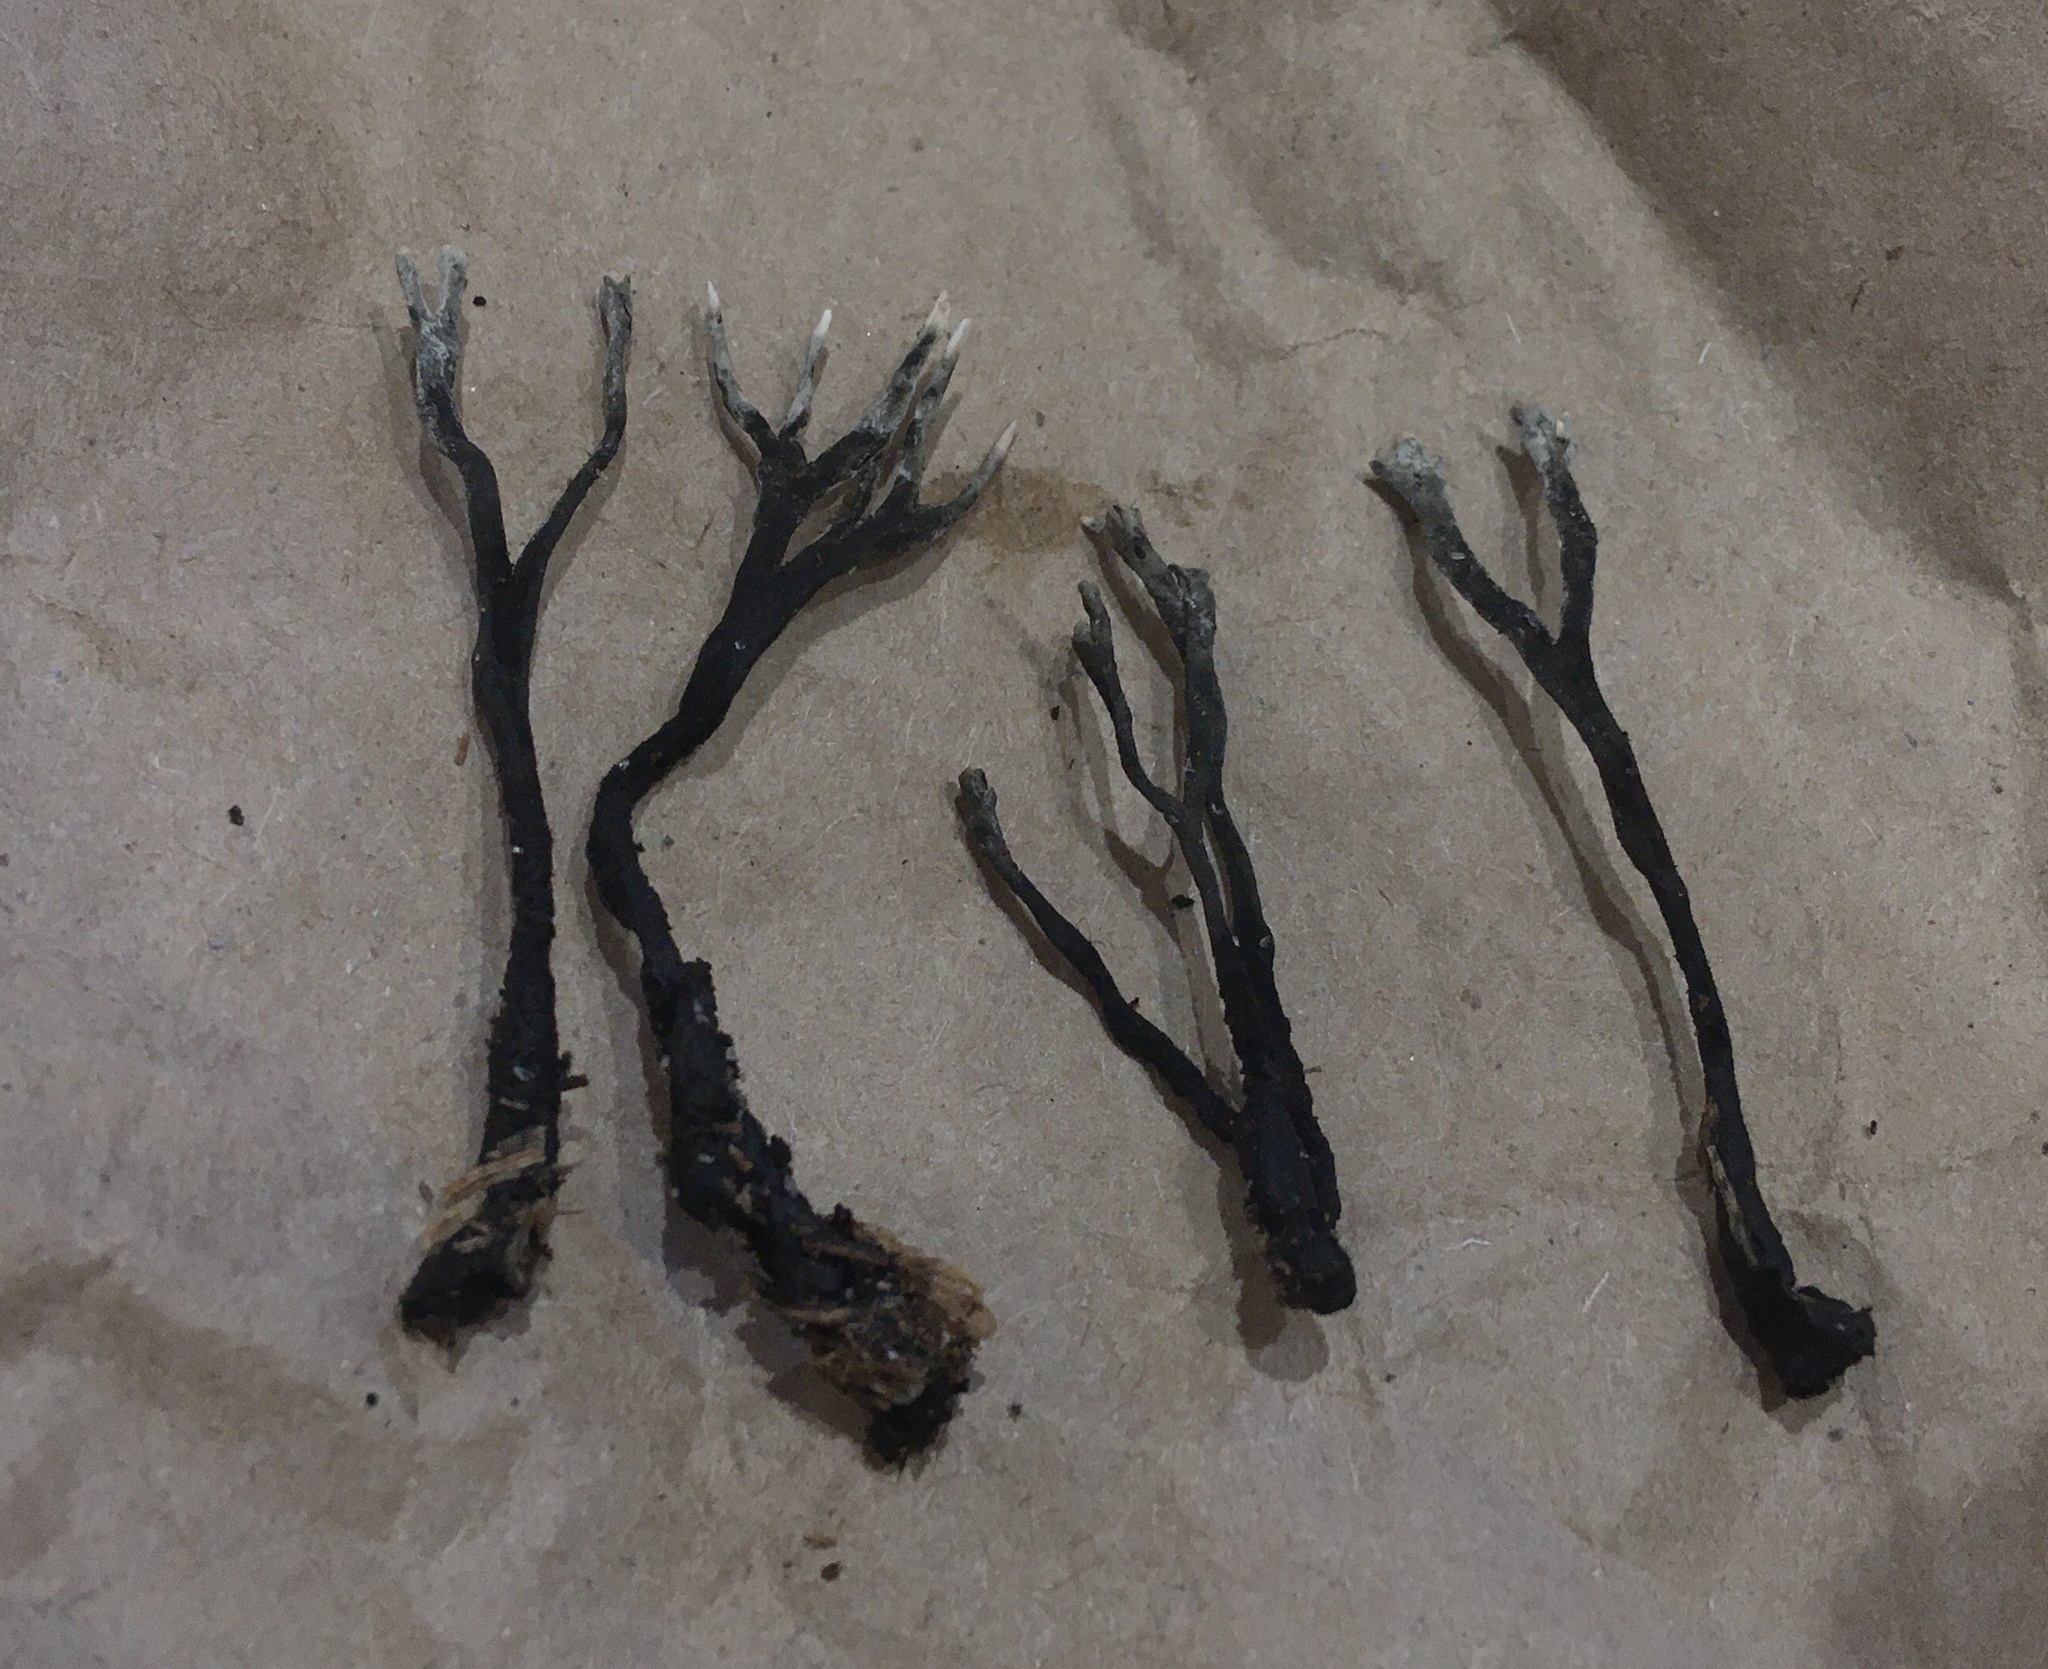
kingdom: Fungi
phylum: Ascomycota
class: Sordariomycetes
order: Xylariales
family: Xylariaceae
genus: Xylaria
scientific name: Xylaria hypoxylon
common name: Candle-snuff fungus
